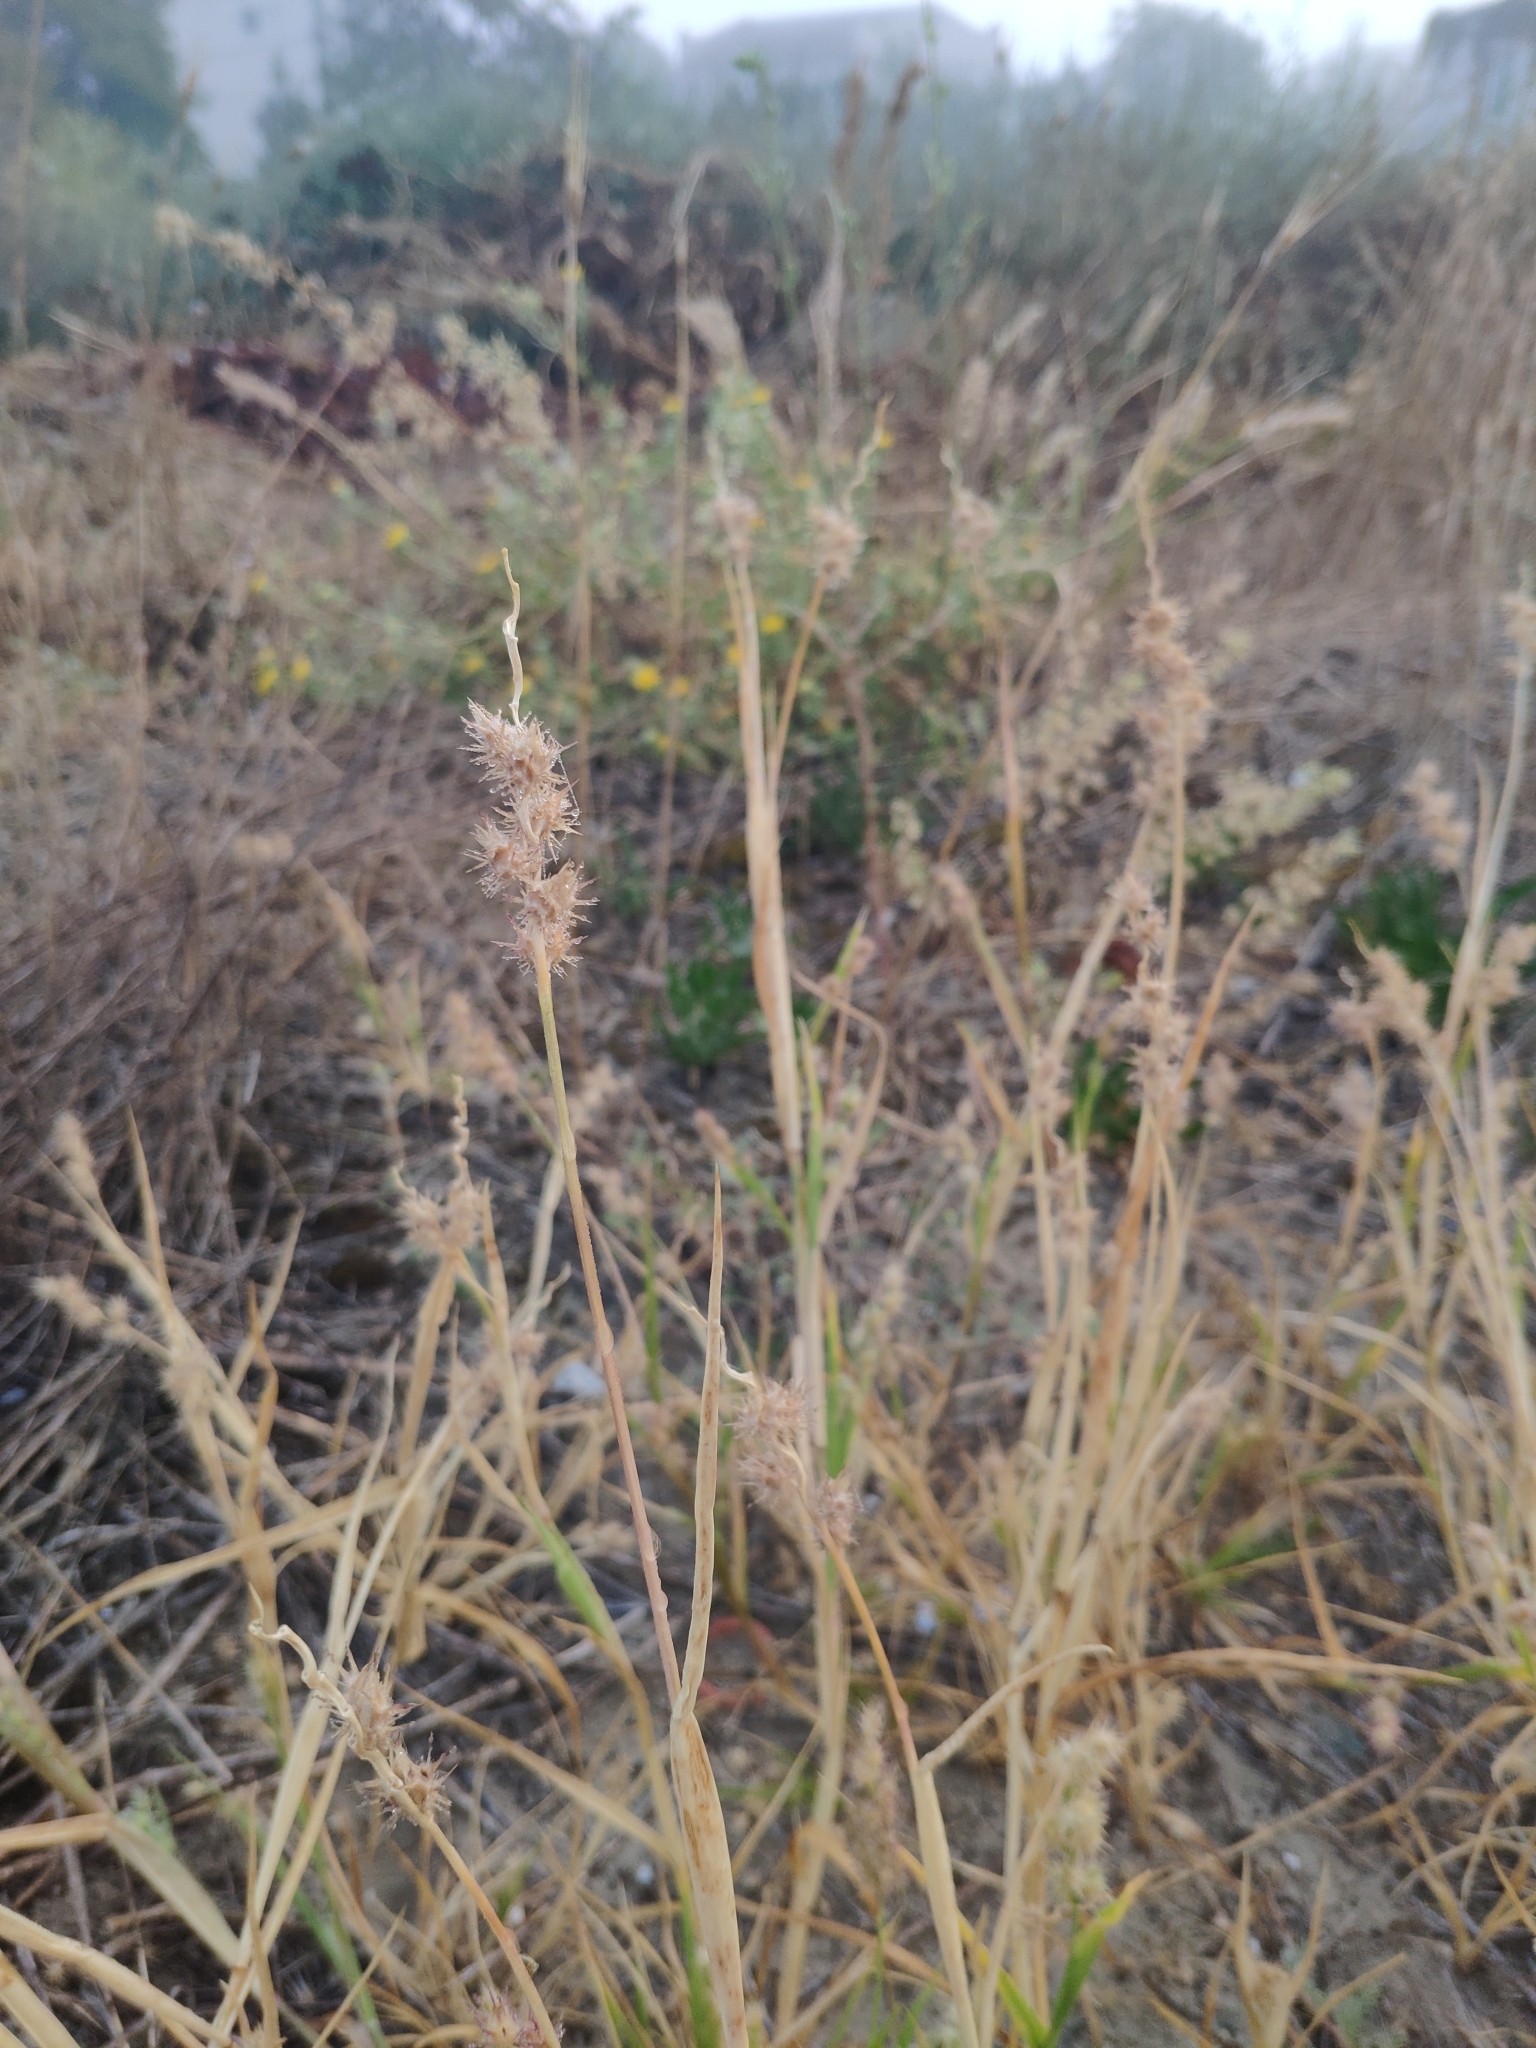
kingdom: Plantae
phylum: Tracheophyta
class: Liliopsida
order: Poales
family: Poaceae
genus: Cenchrus
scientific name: Cenchrus longispinus
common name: Mat sandbur
